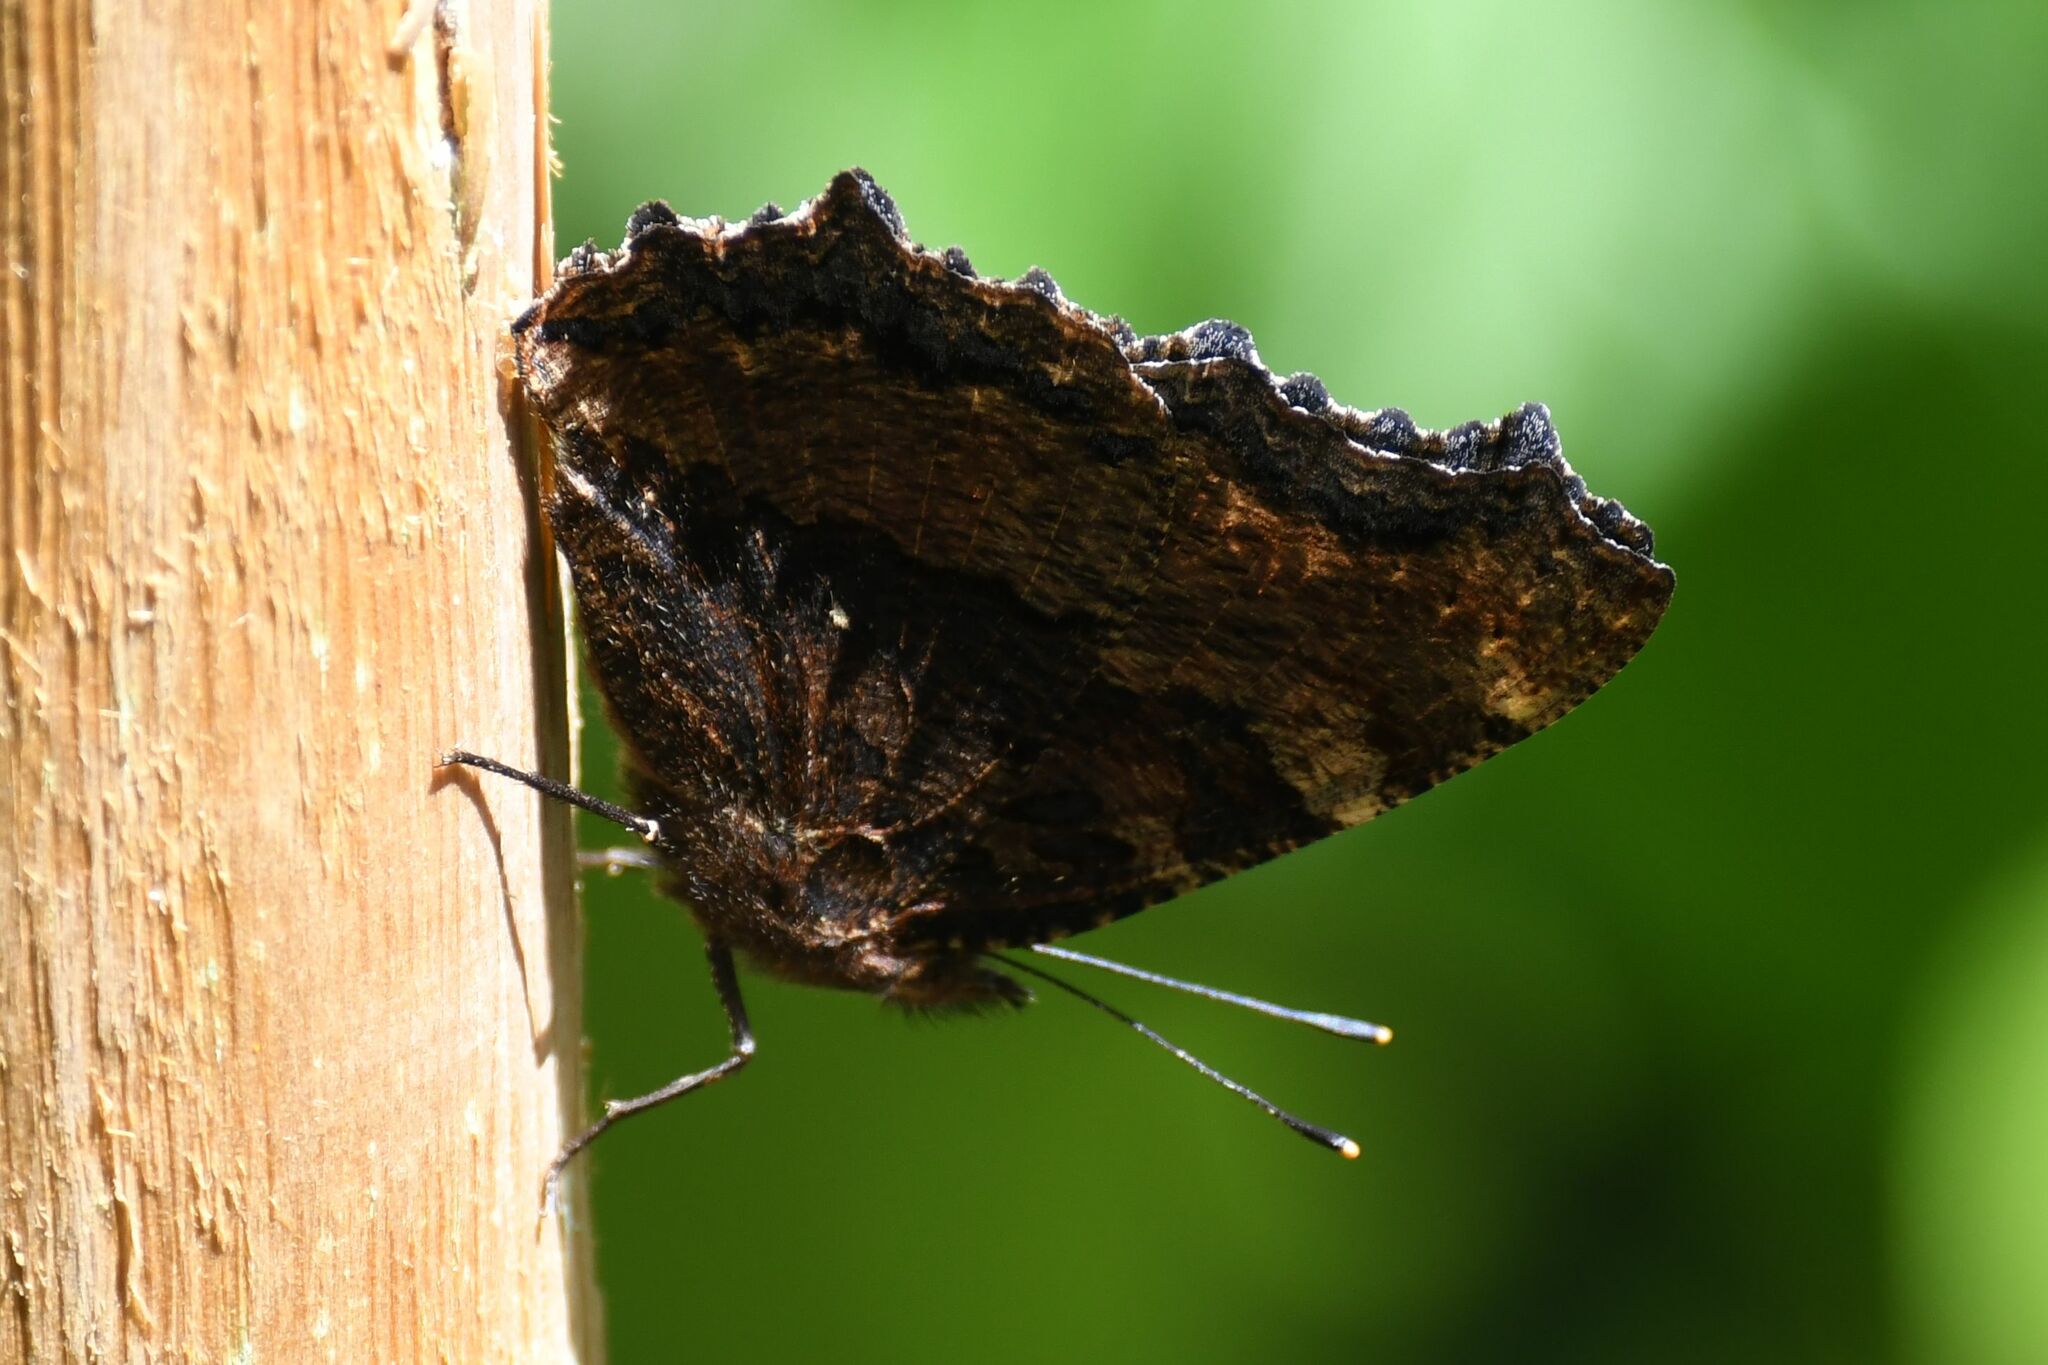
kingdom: Animalia
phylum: Arthropoda
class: Insecta
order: Lepidoptera
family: Nymphalidae
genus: Nymphalis
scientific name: Nymphalis polychloros
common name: Large tortoiseshell
